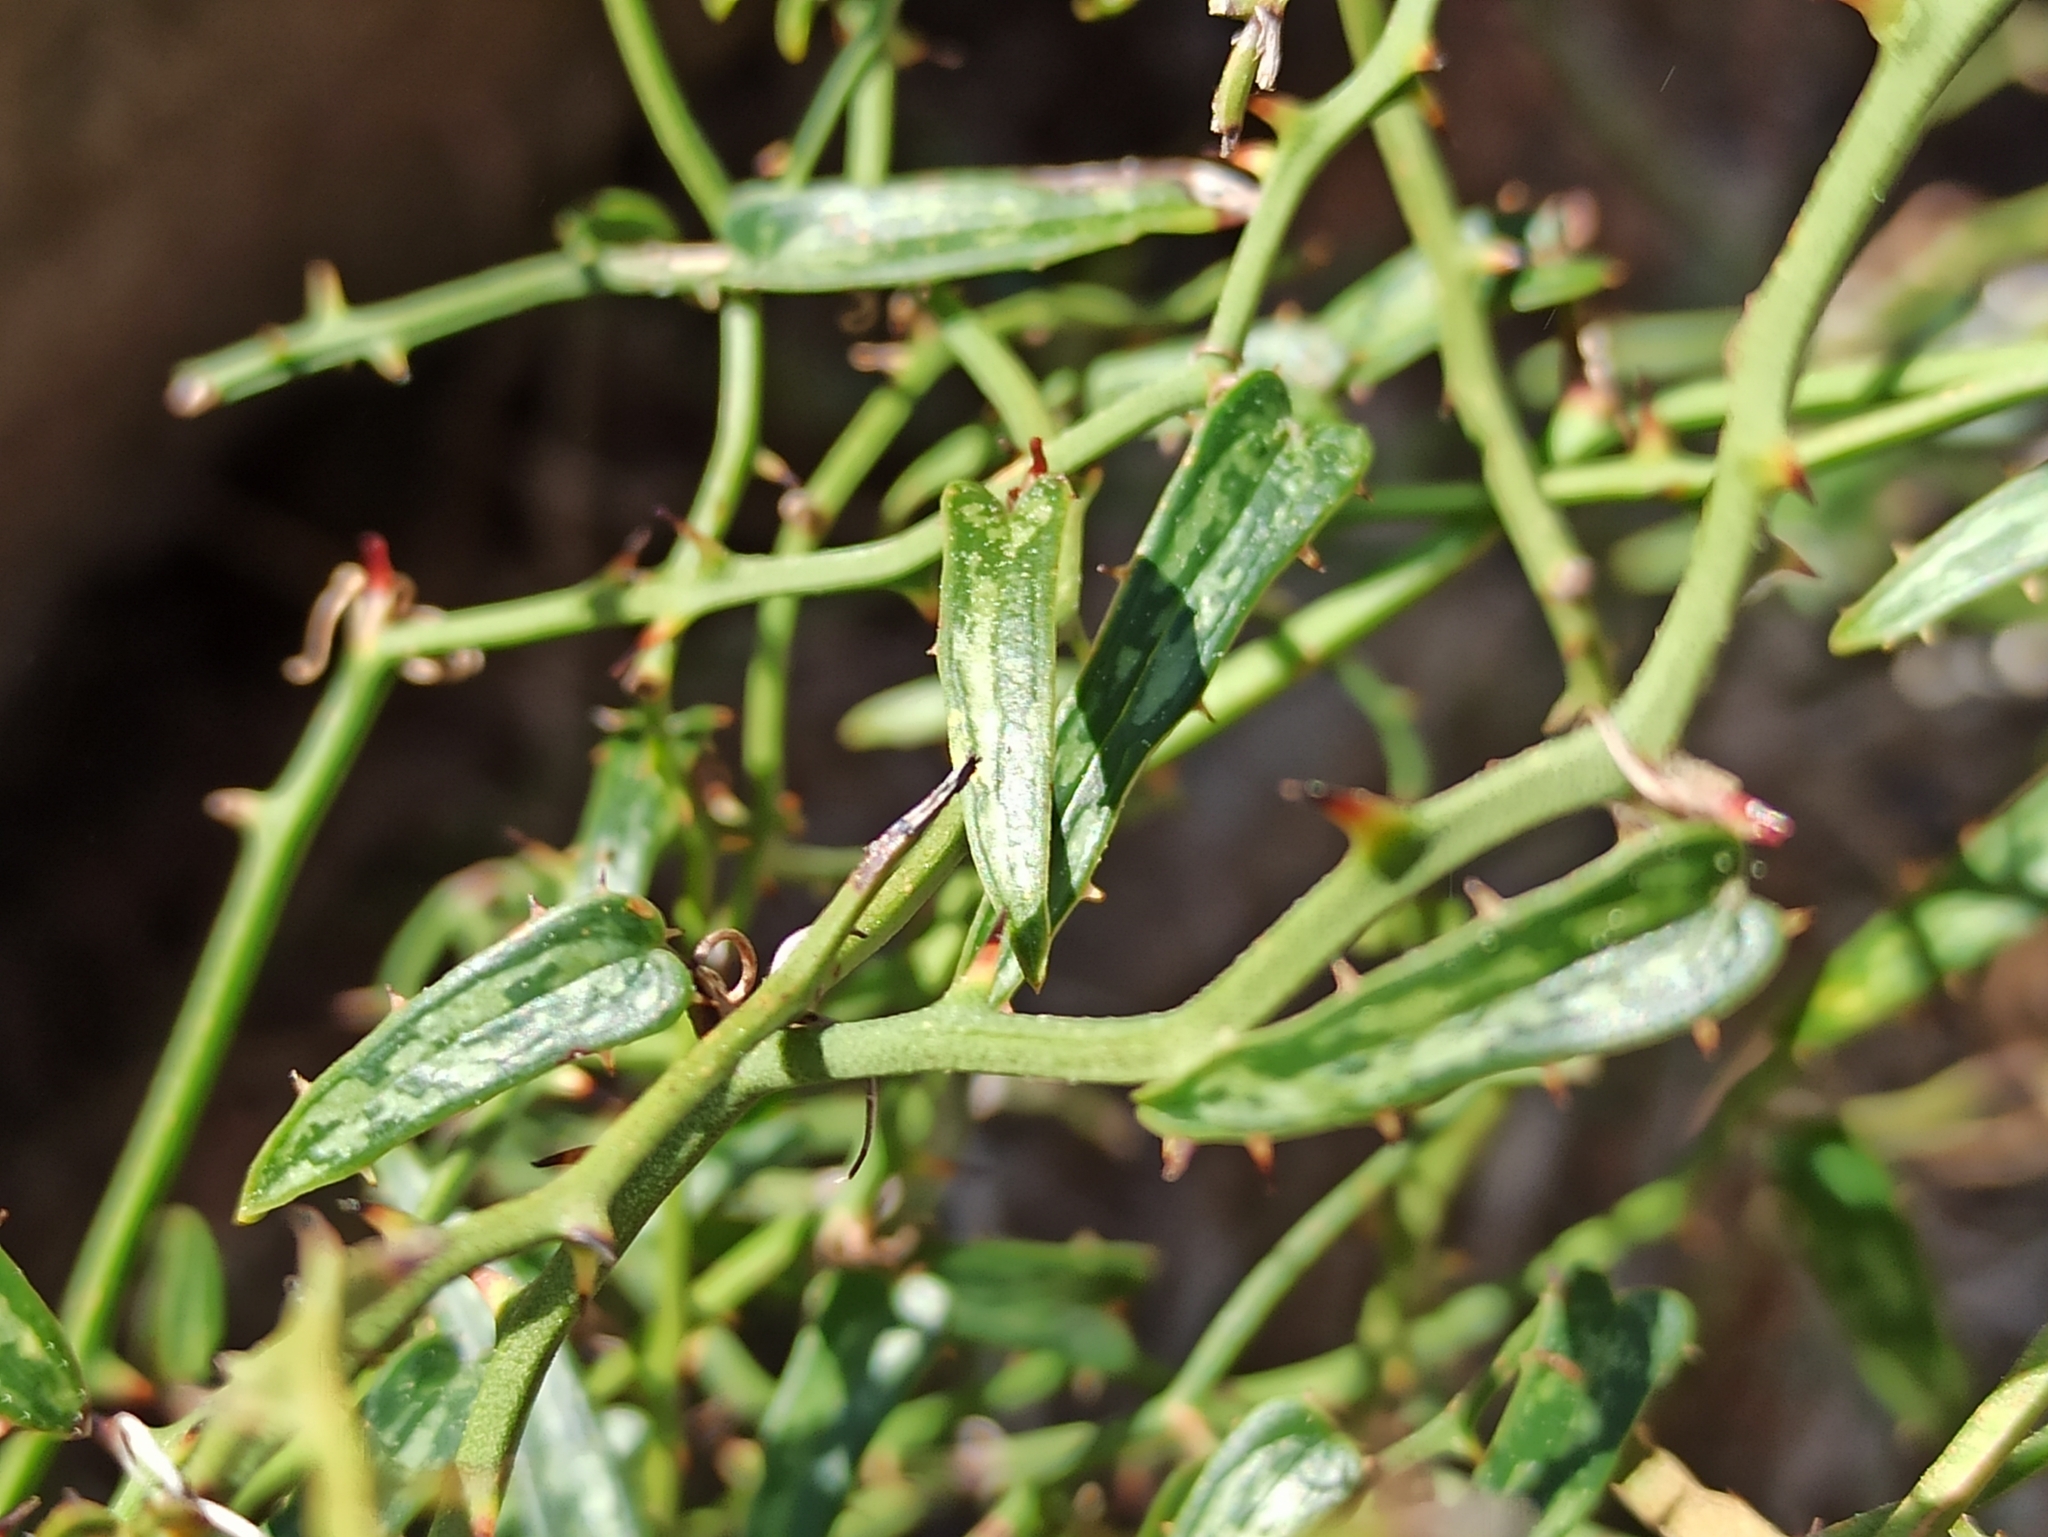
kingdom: Plantae
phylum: Tracheophyta
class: Liliopsida
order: Liliales
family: Smilacaceae
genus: Smilax
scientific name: Smilax aspera
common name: Common smilax
